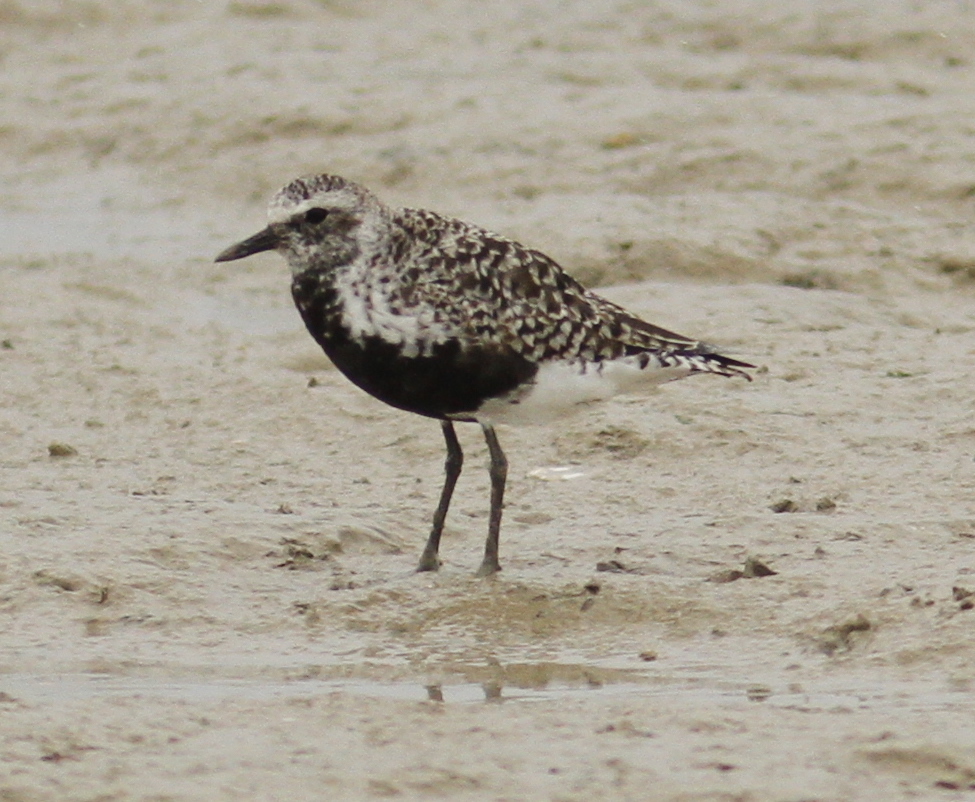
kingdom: Animalia
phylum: Chordata
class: Aves
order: Charadriiformes
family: Charadriidae
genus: Pluvialis
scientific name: Pluvialis squatarola
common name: Grey plover
